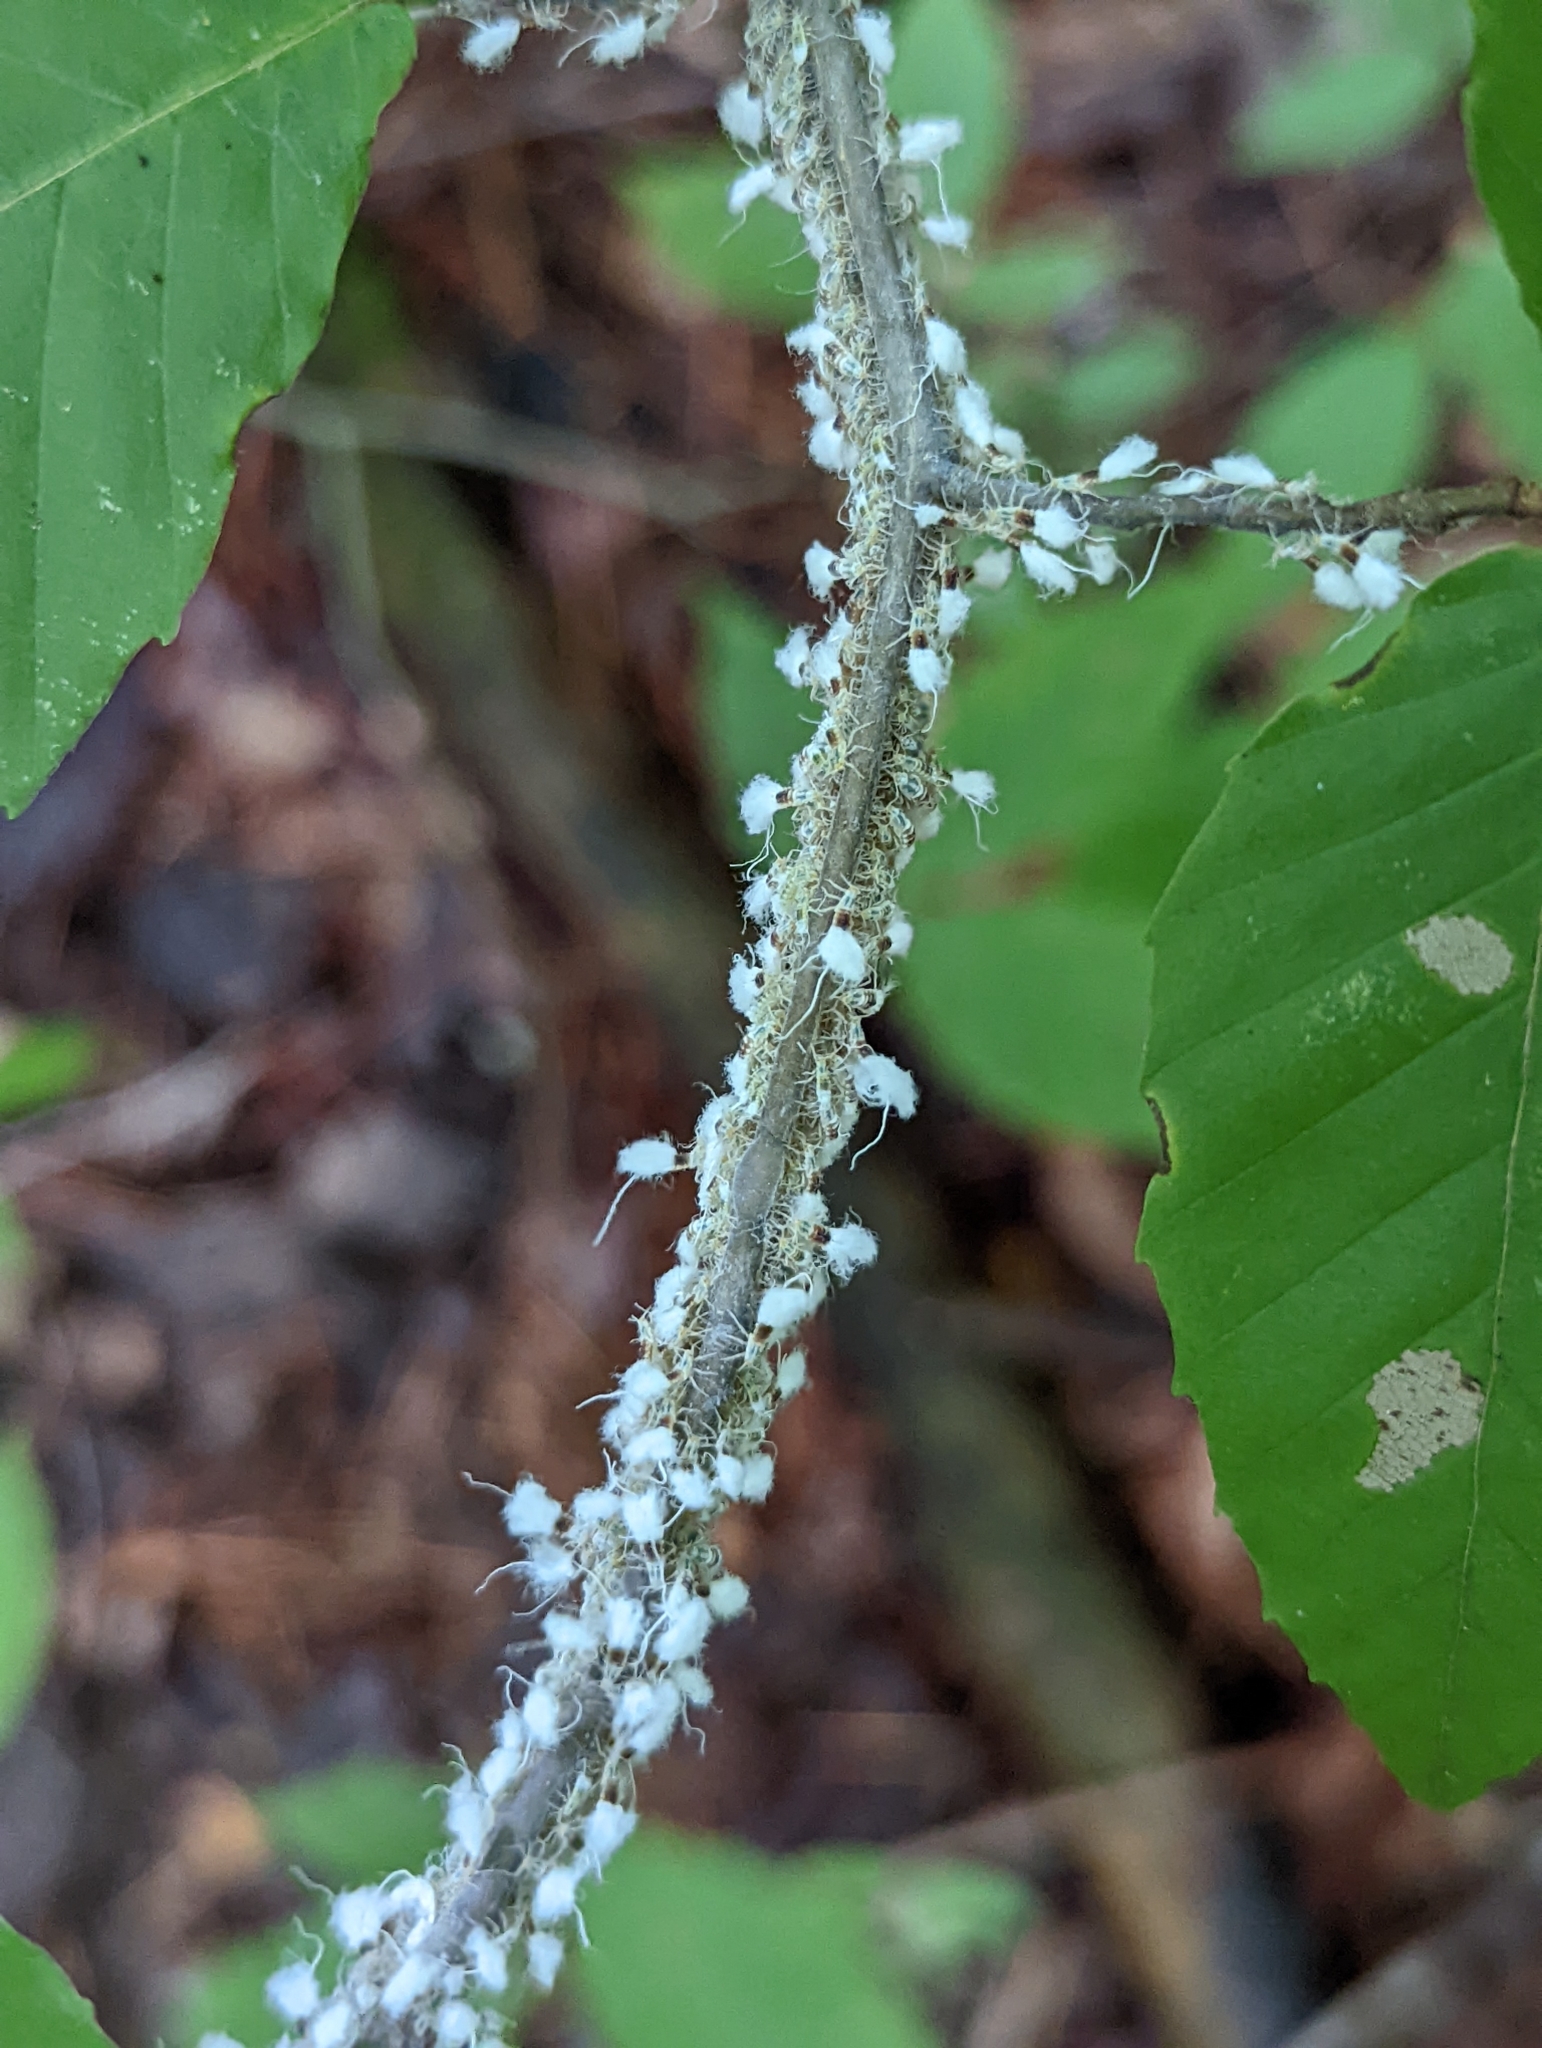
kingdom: Animalia
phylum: Arthropoda
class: Insecta
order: Hemiptera
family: Aphididae
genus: Grylloprociphilus
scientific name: Grylloprociphilus imbricator
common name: Beech blight aphid
